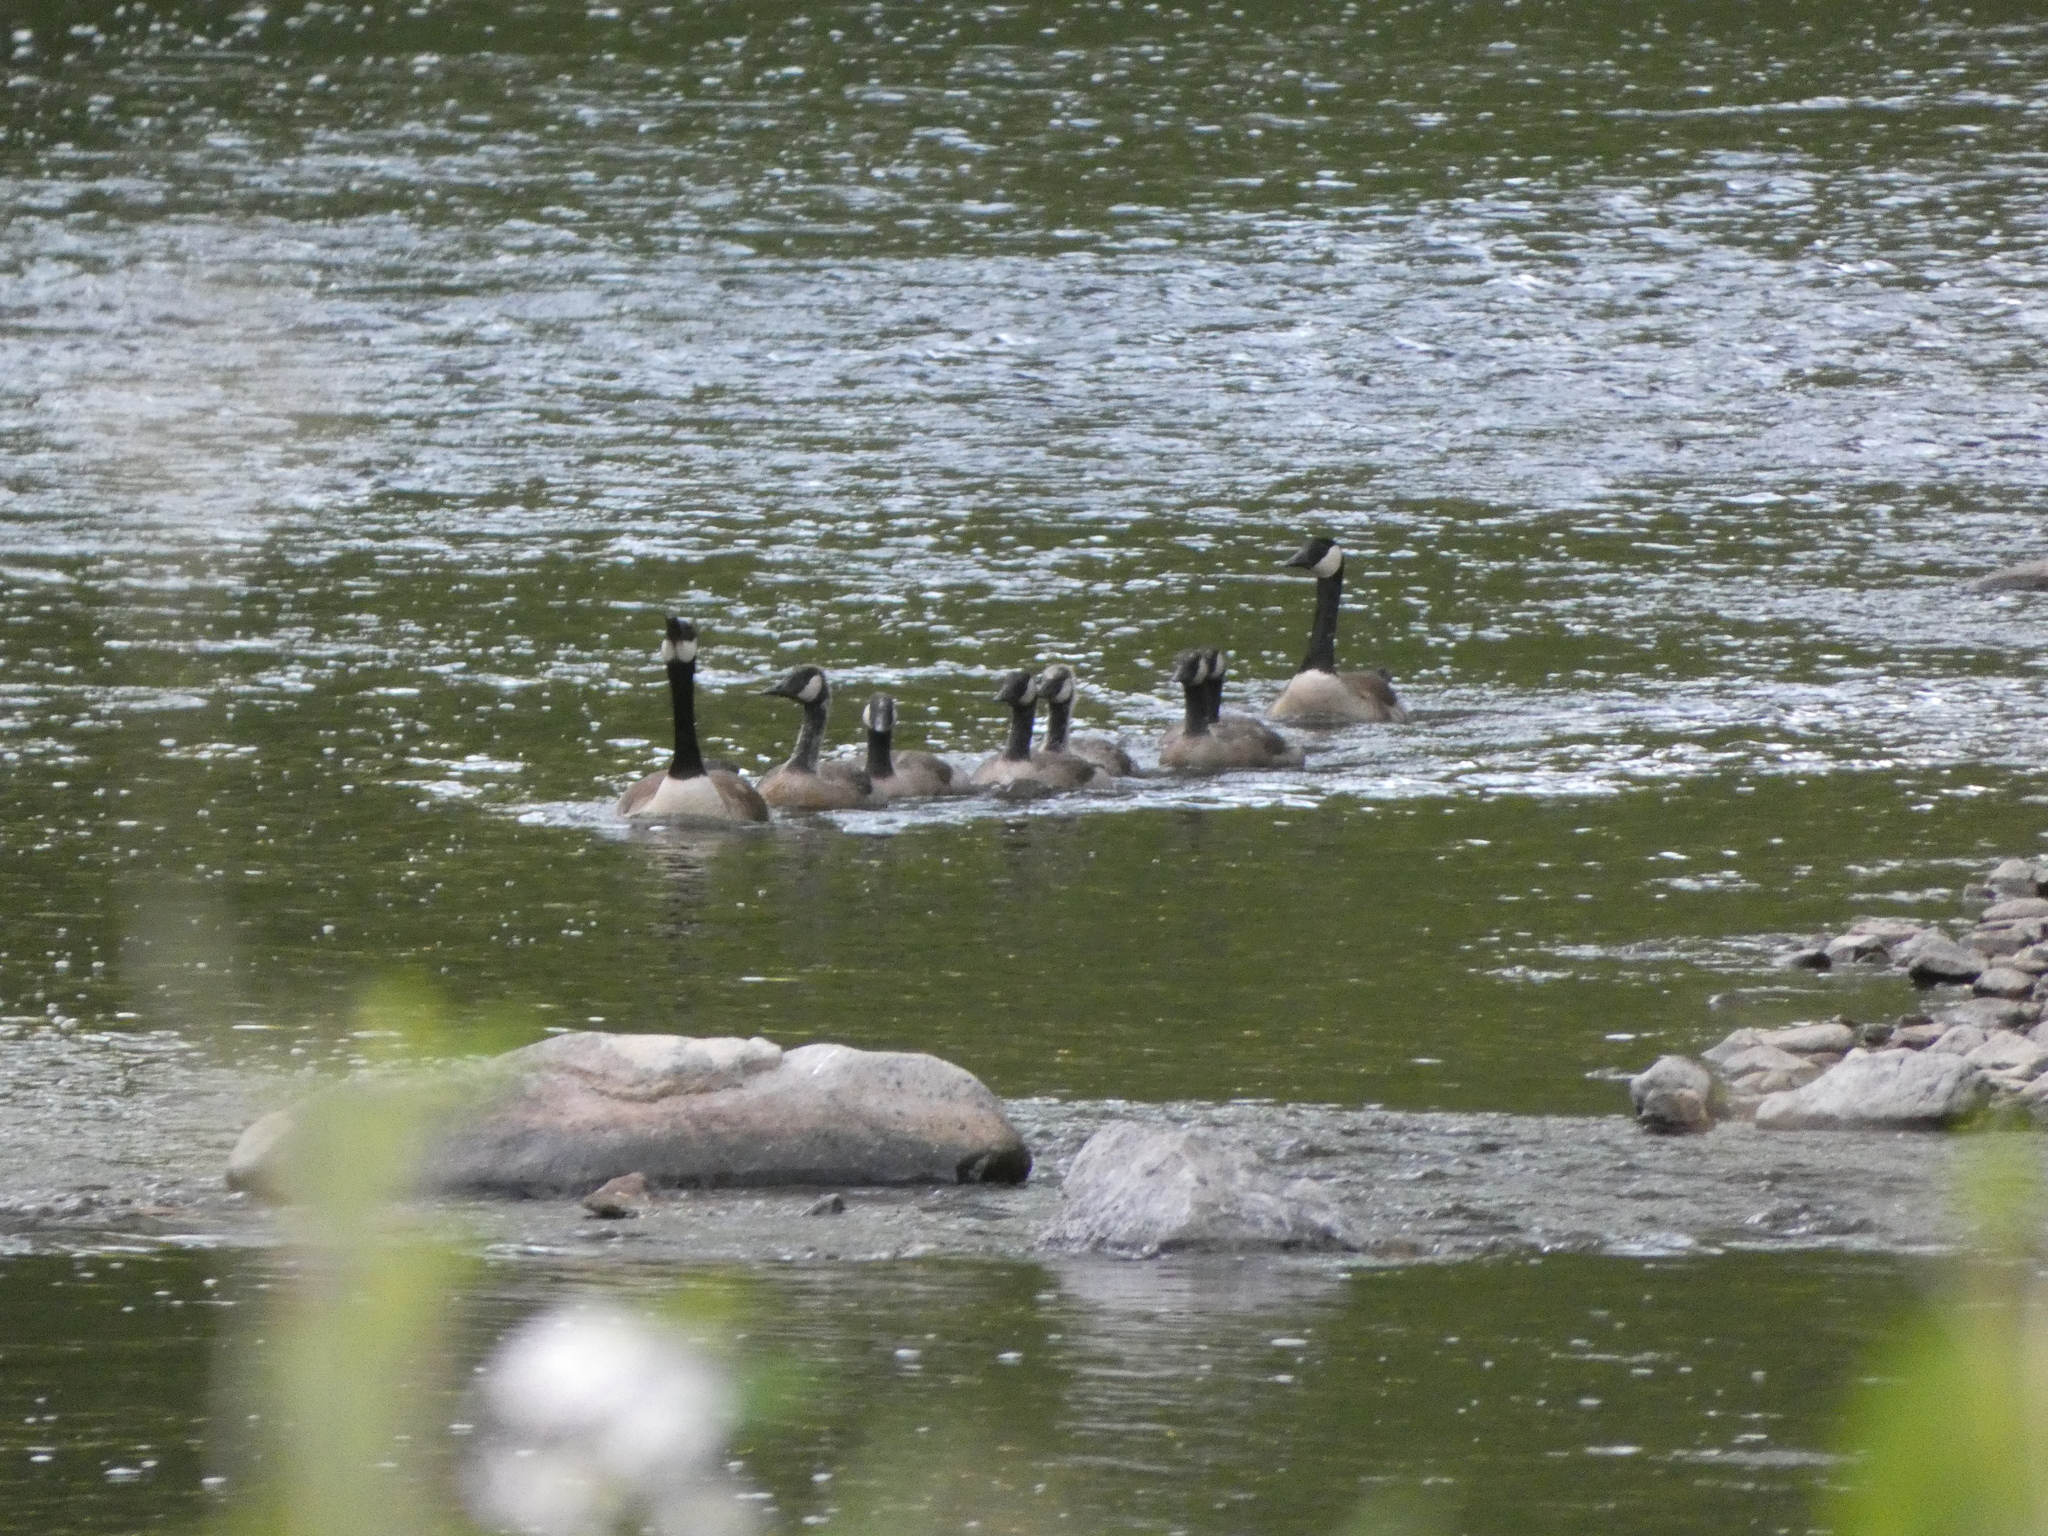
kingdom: Animalia
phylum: Chordata
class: Aves
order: Anseriformes
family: Anatidae
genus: Branta
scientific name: Branta canadensis
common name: Canada goose
